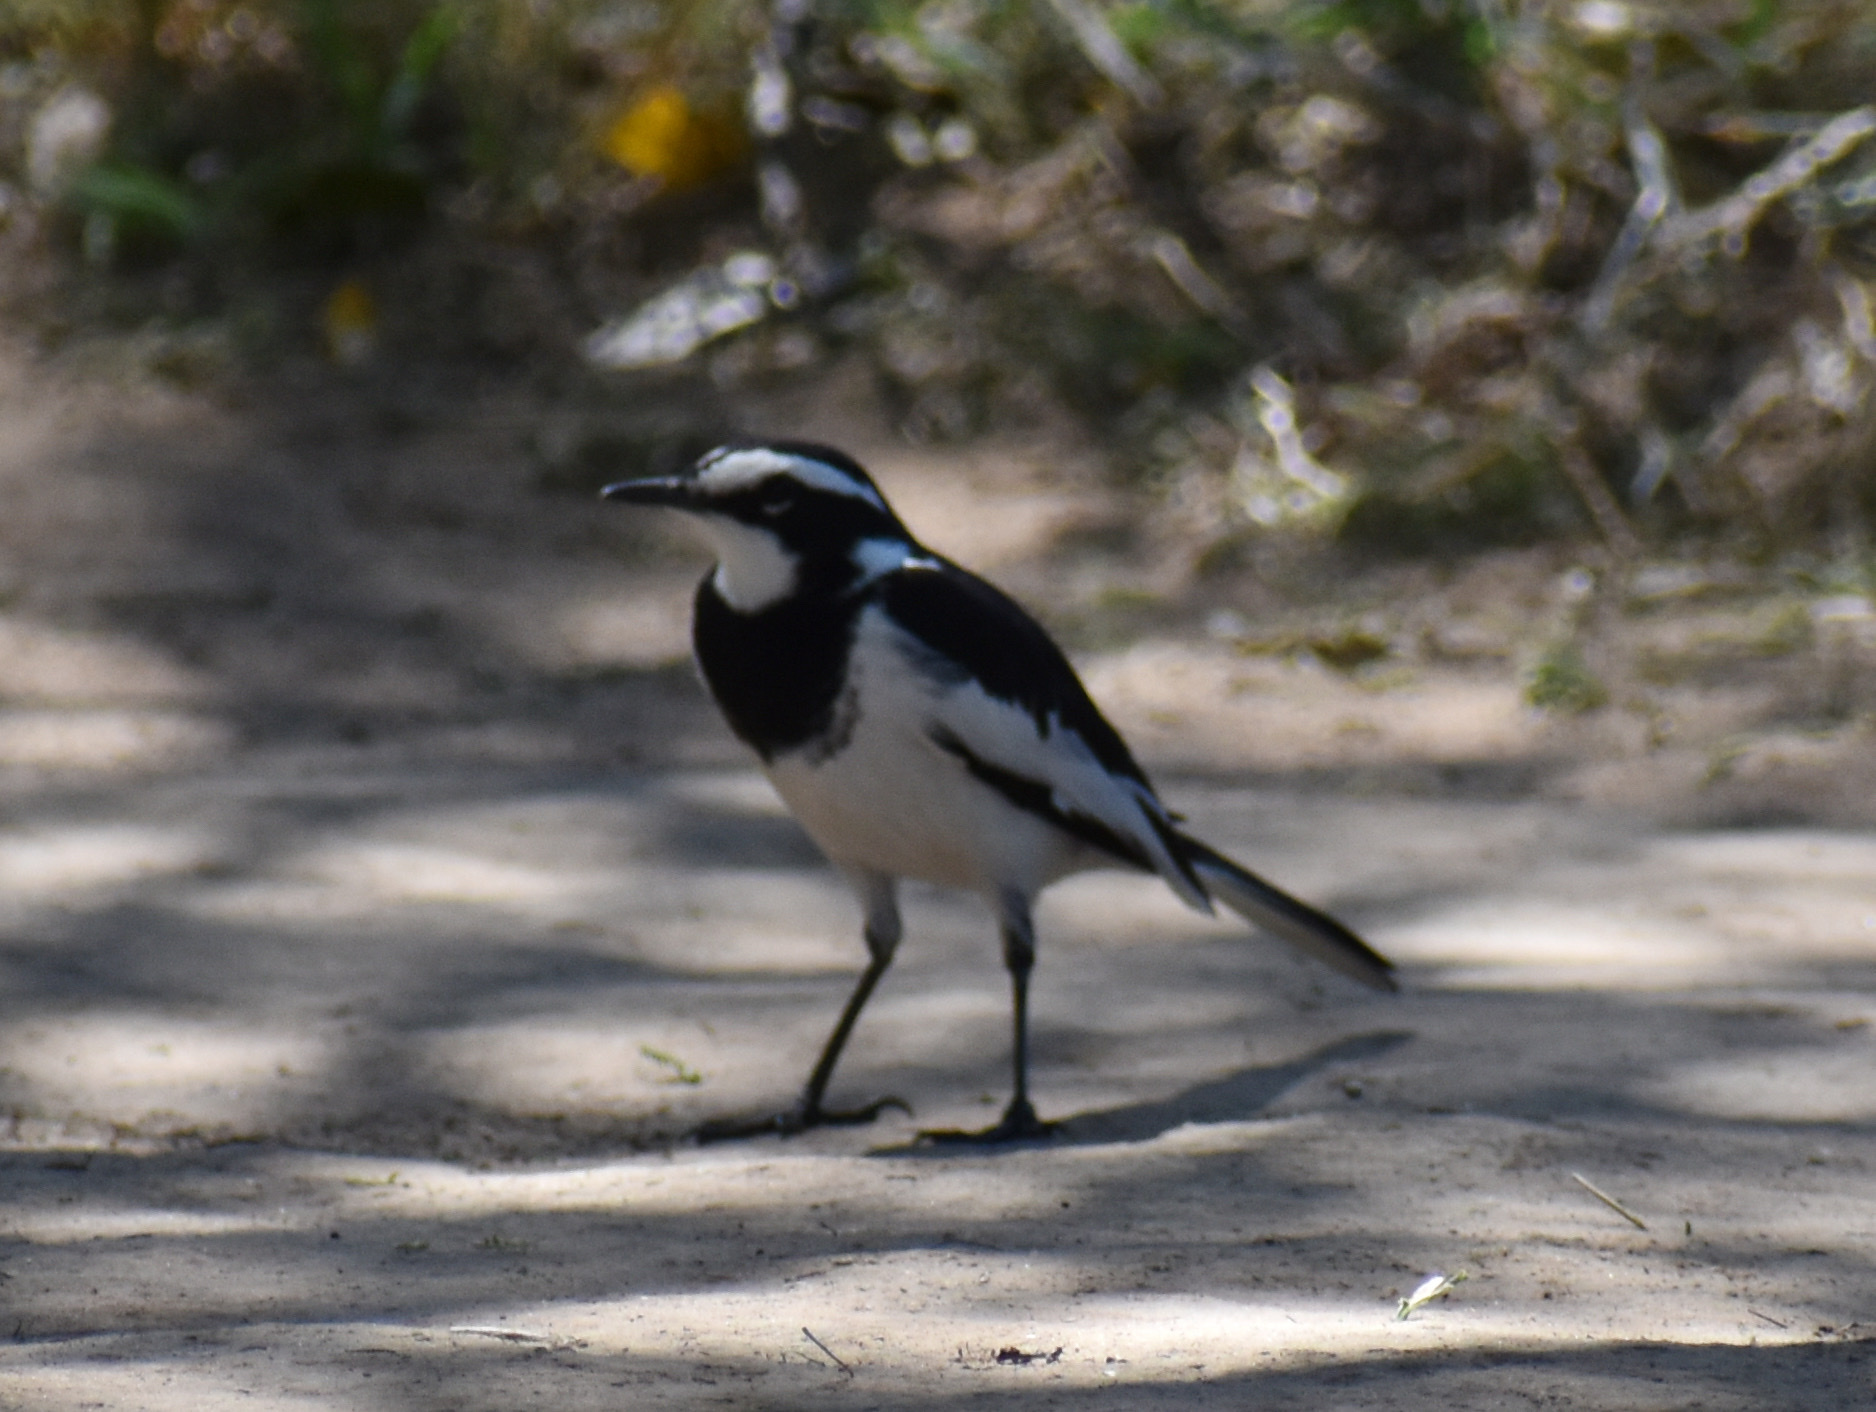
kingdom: Animalia
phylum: Chordata
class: Aves
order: Passeriformes
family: Motacillidae
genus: Motacilla
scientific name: Motacilla aguimp
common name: African pied wagtail
